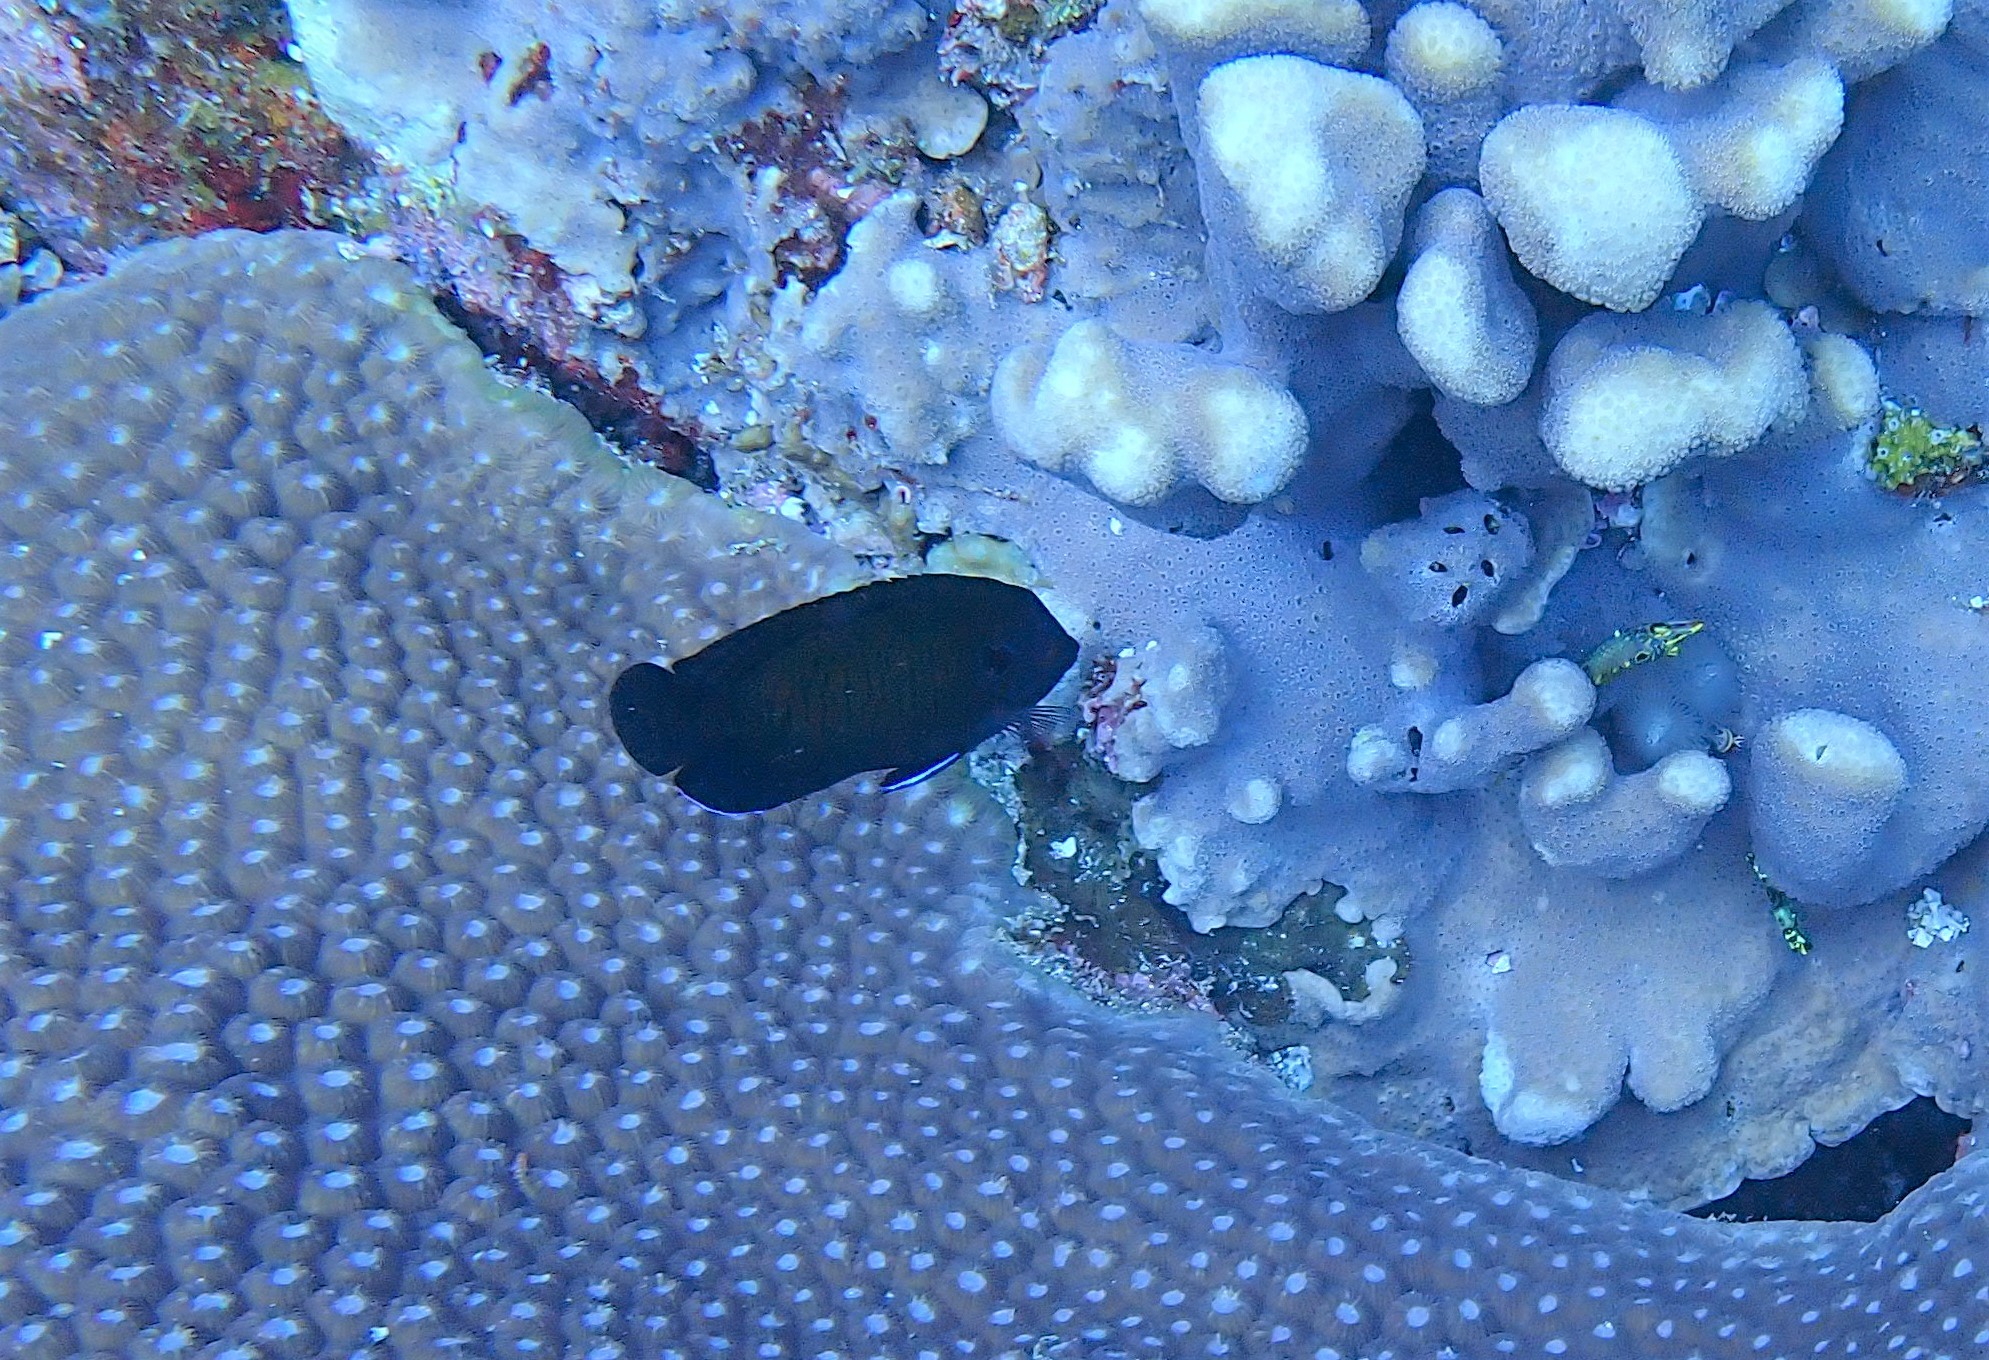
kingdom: Animalia
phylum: Chordata
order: Perciformes
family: Pomacanthidae
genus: Centropyge
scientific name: Centropyge multispinis
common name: Many-spined angelfish
